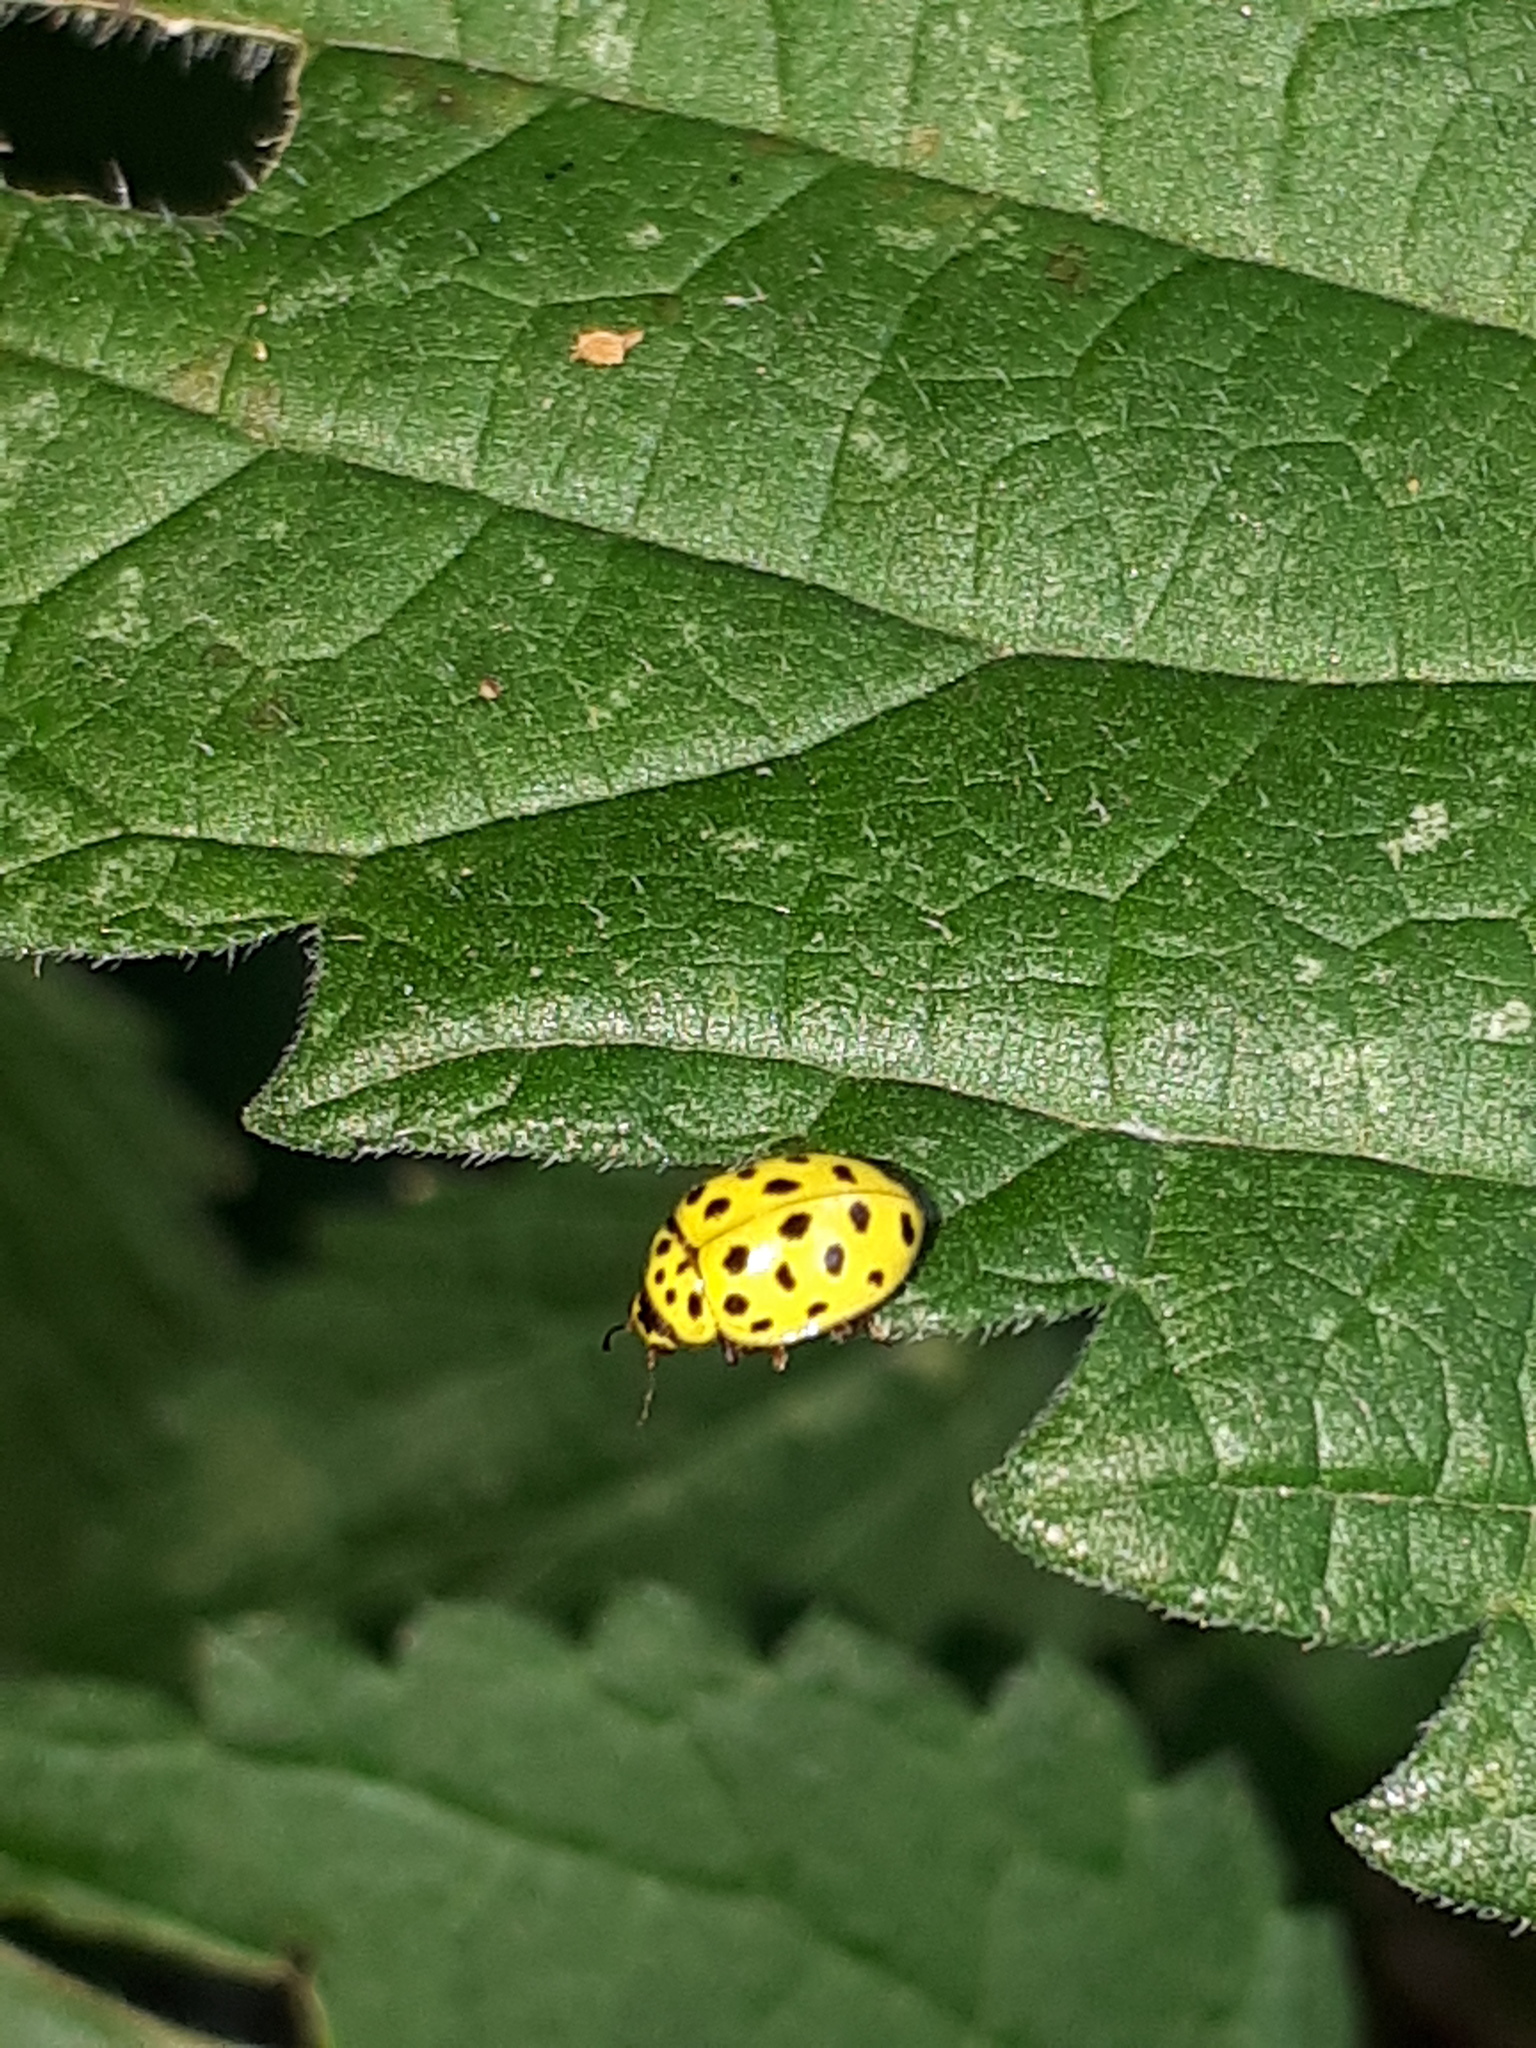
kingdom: Animalia
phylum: Arthropoda
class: Insecta
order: Coleoptera
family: Coccinellidae
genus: Psyllobora
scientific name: Psyllobora vigintiduopunctata
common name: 22-spot ladybird
